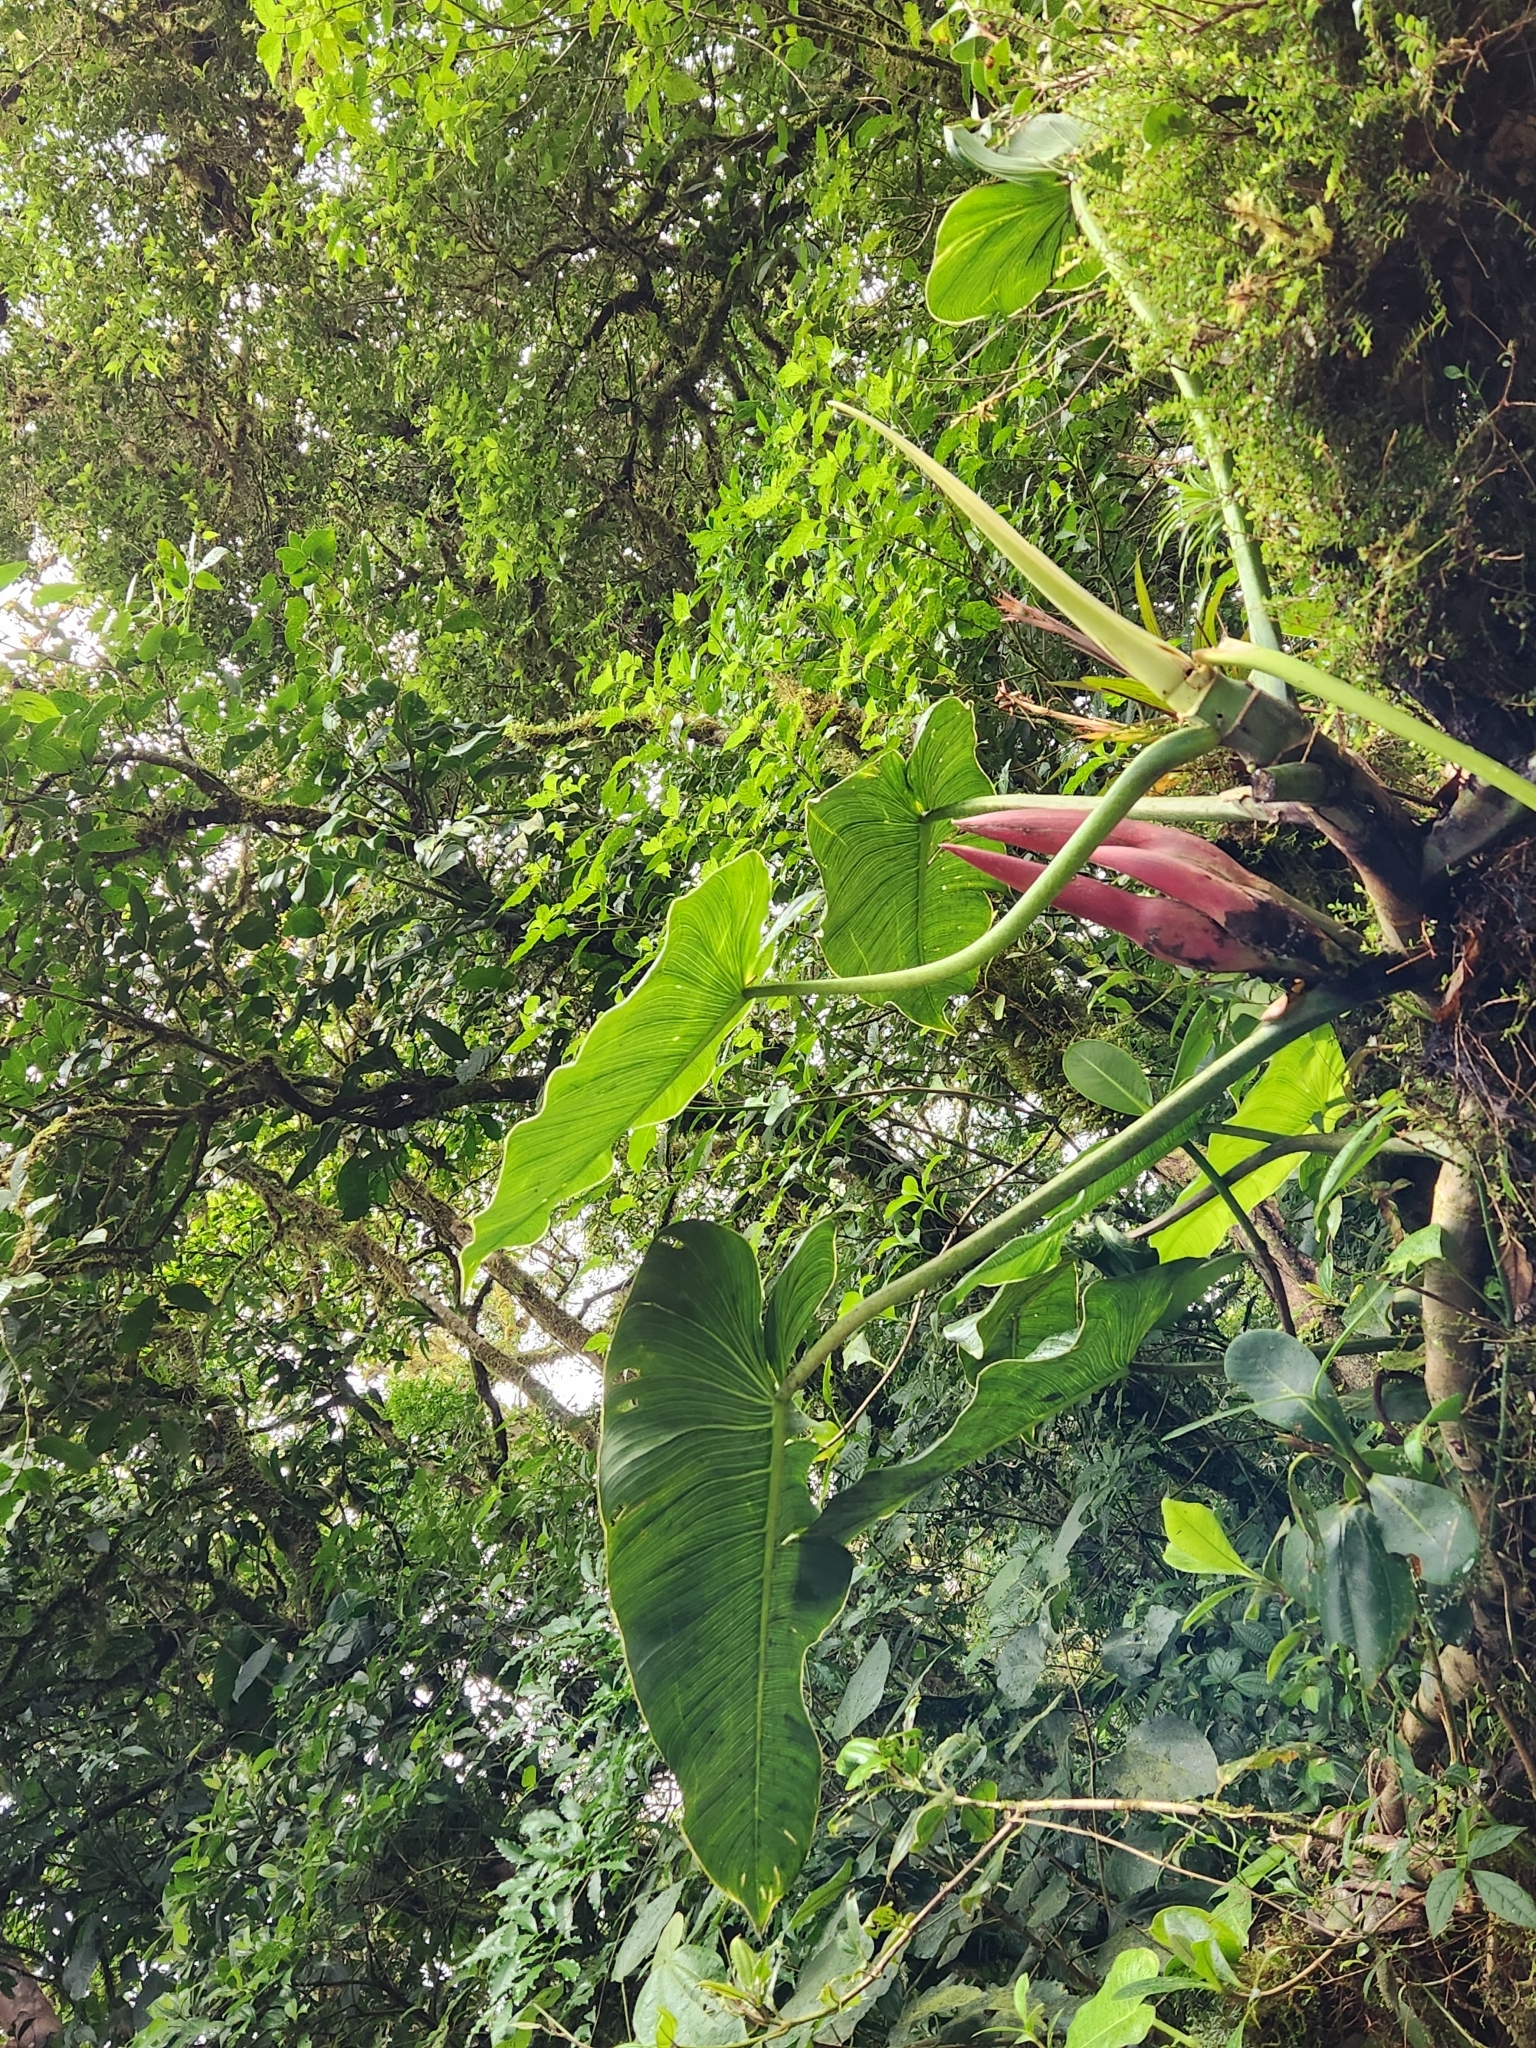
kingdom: Plantae
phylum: Tracheophyta
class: Liliopsida
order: Alismatales
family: Araceae
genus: Philodendron
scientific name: Philodendron brenesii
